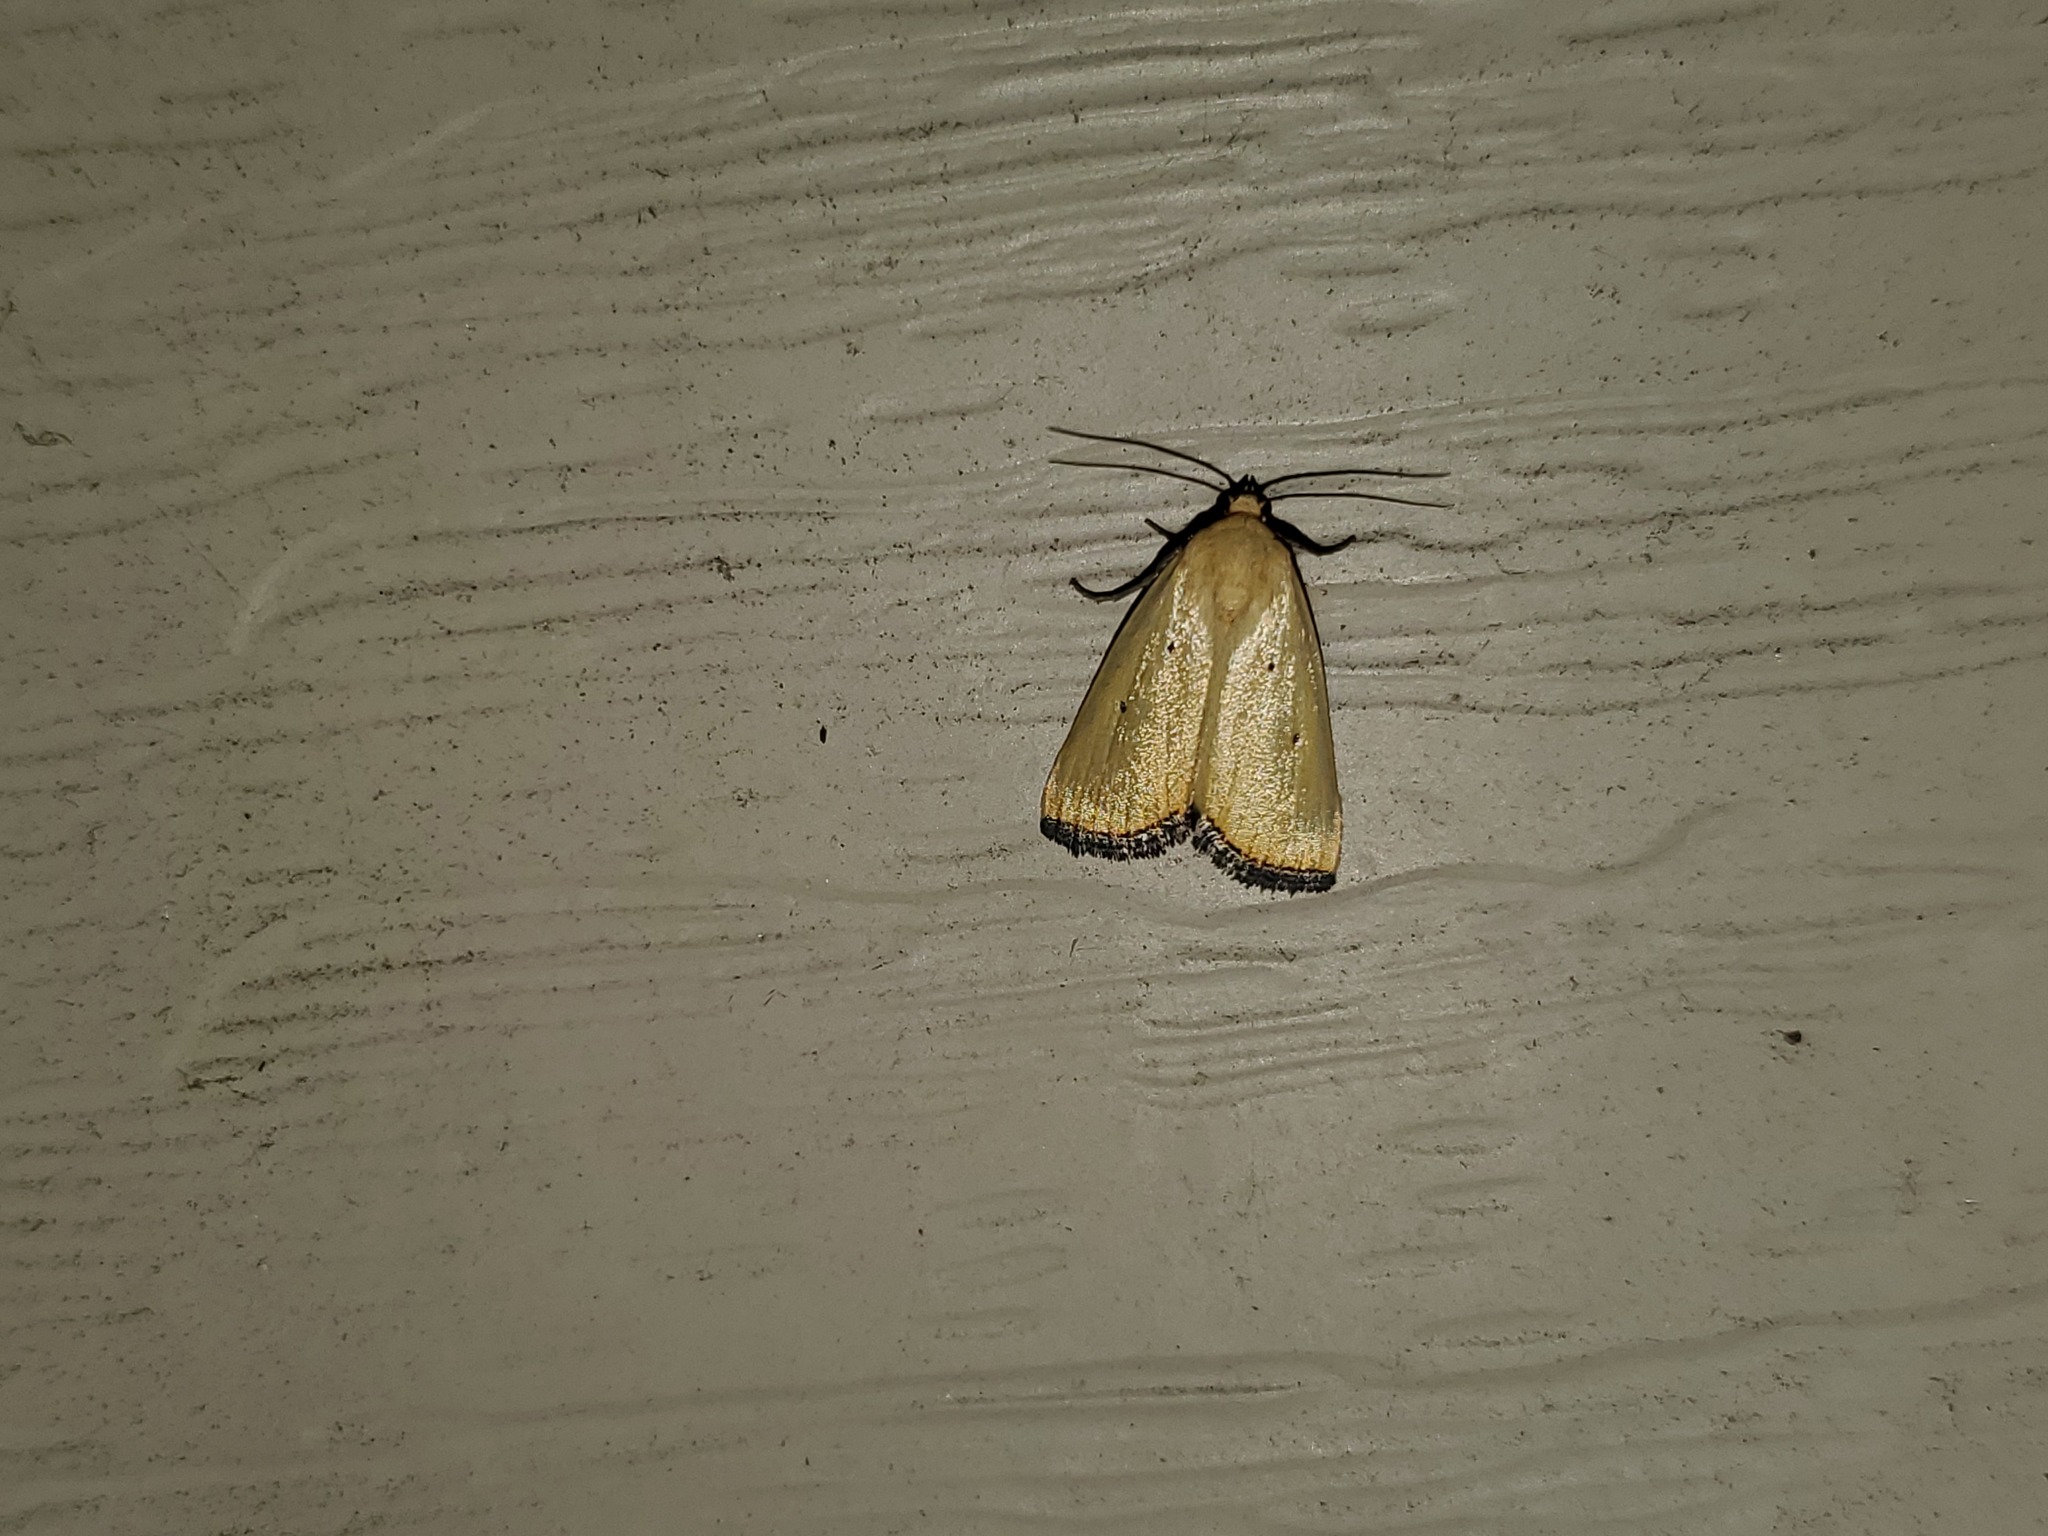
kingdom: Animalia
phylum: Arthropoda
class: Insecta
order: Lepidoptera
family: Noctuidae
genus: Marimatha
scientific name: Marimatha nigrofimbria
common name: Black-bordered lemon moth
